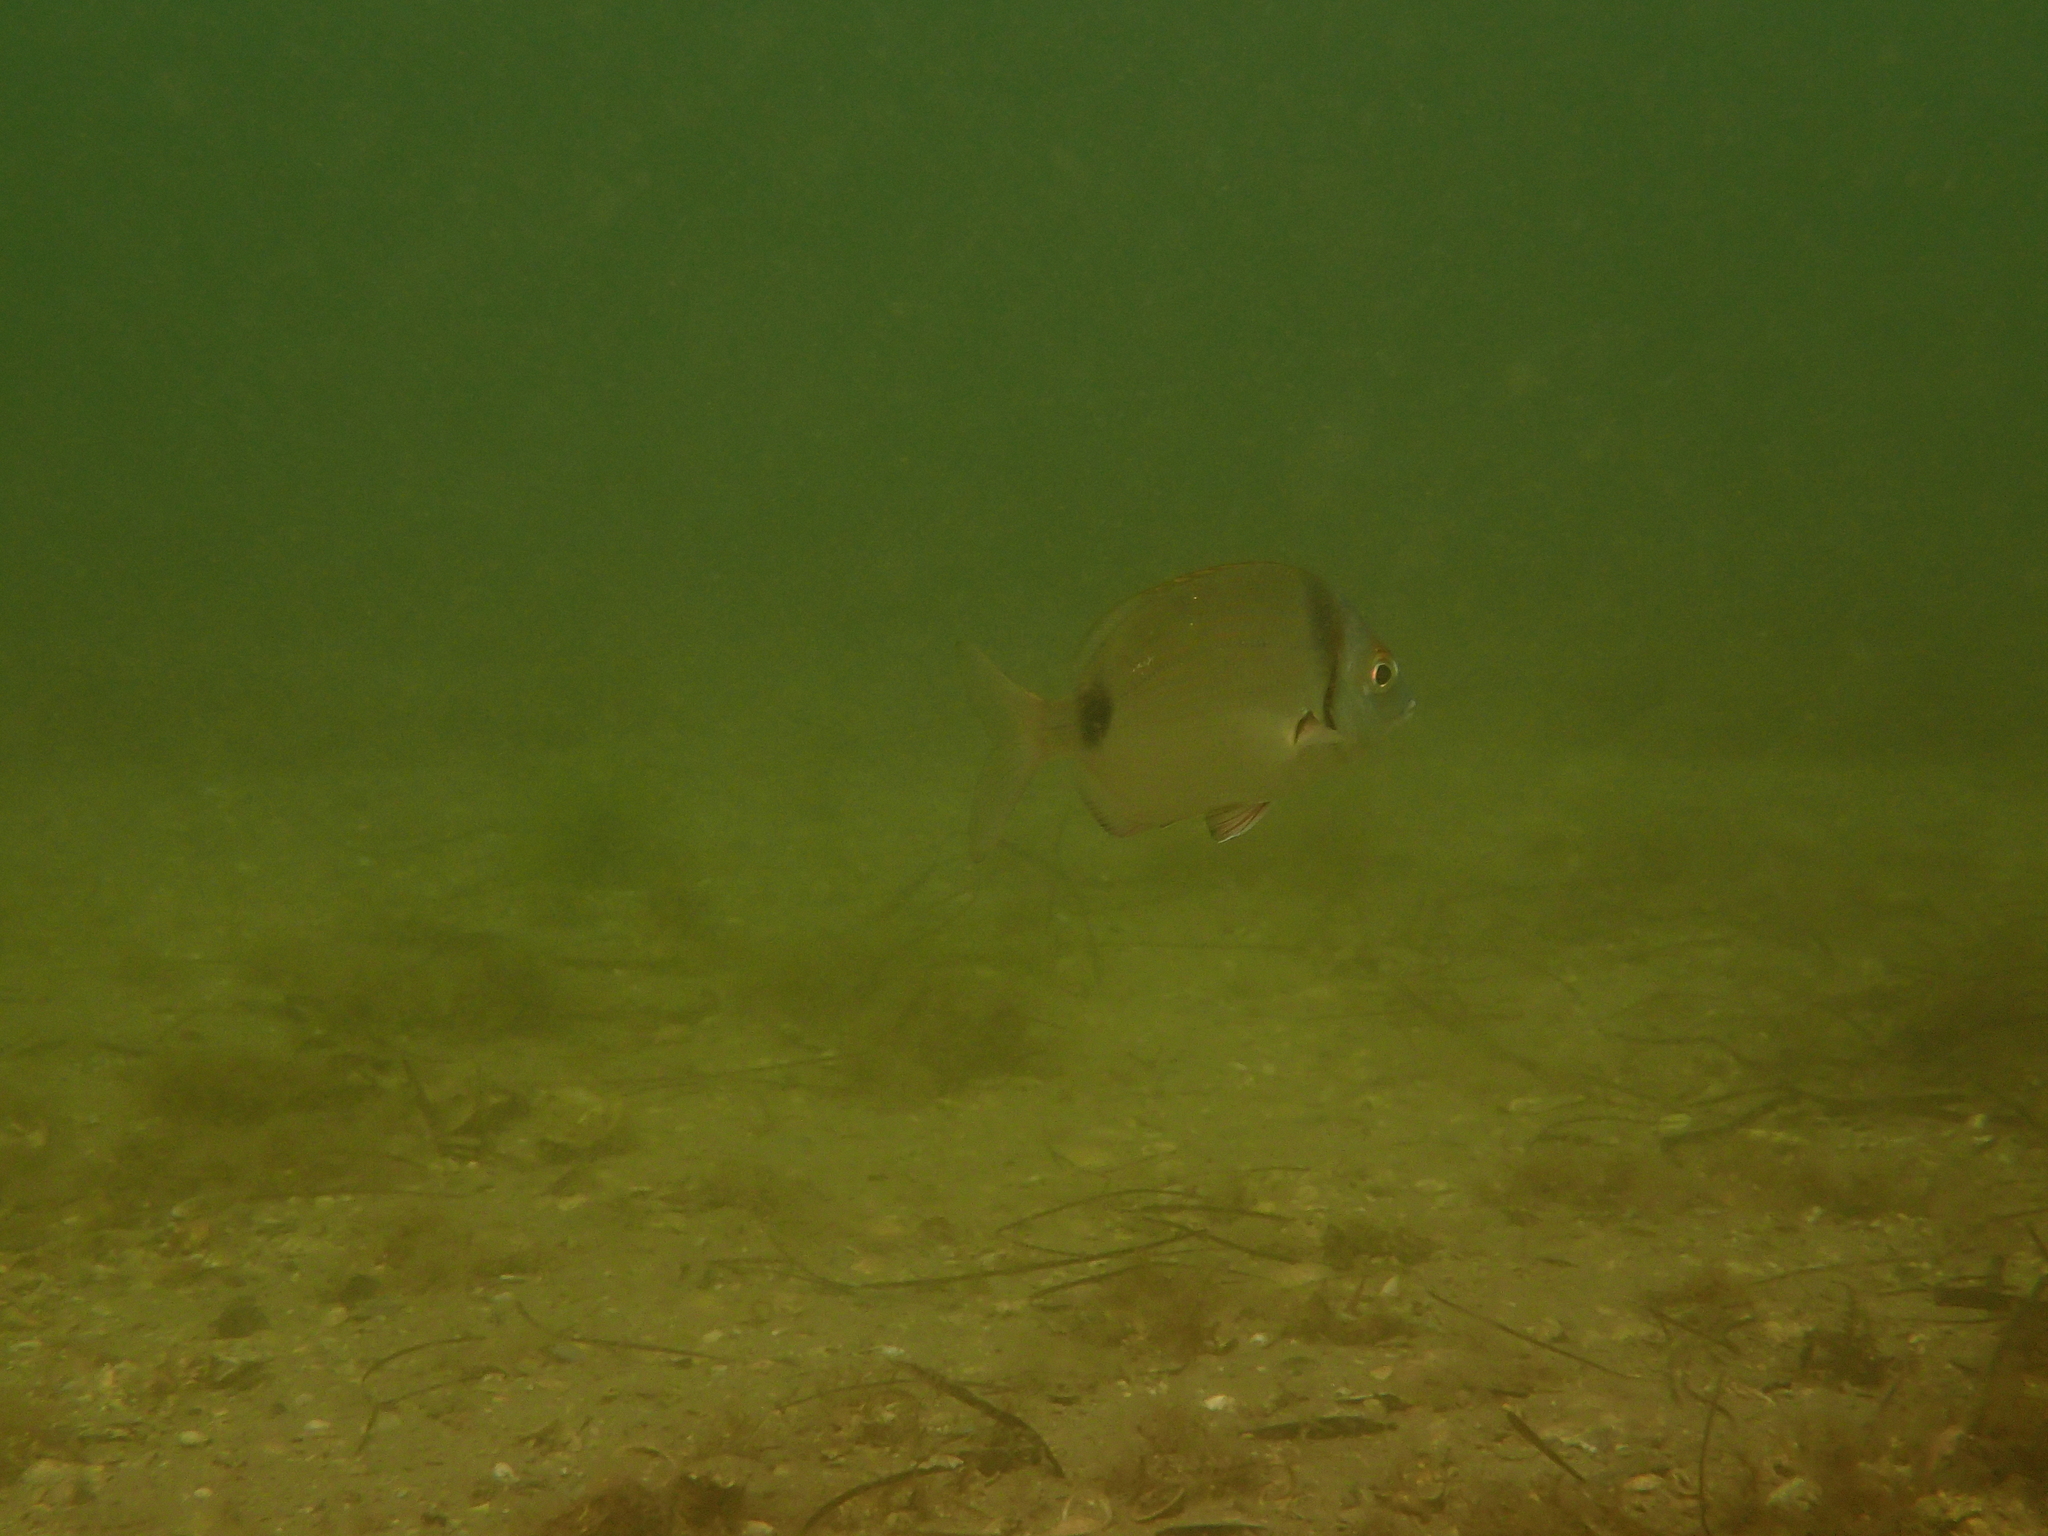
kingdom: Animalia
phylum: Chordata
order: Perciformes
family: Sparidae
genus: Diplodus
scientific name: Diplodus vulgaris
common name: Common two-banded seabream
